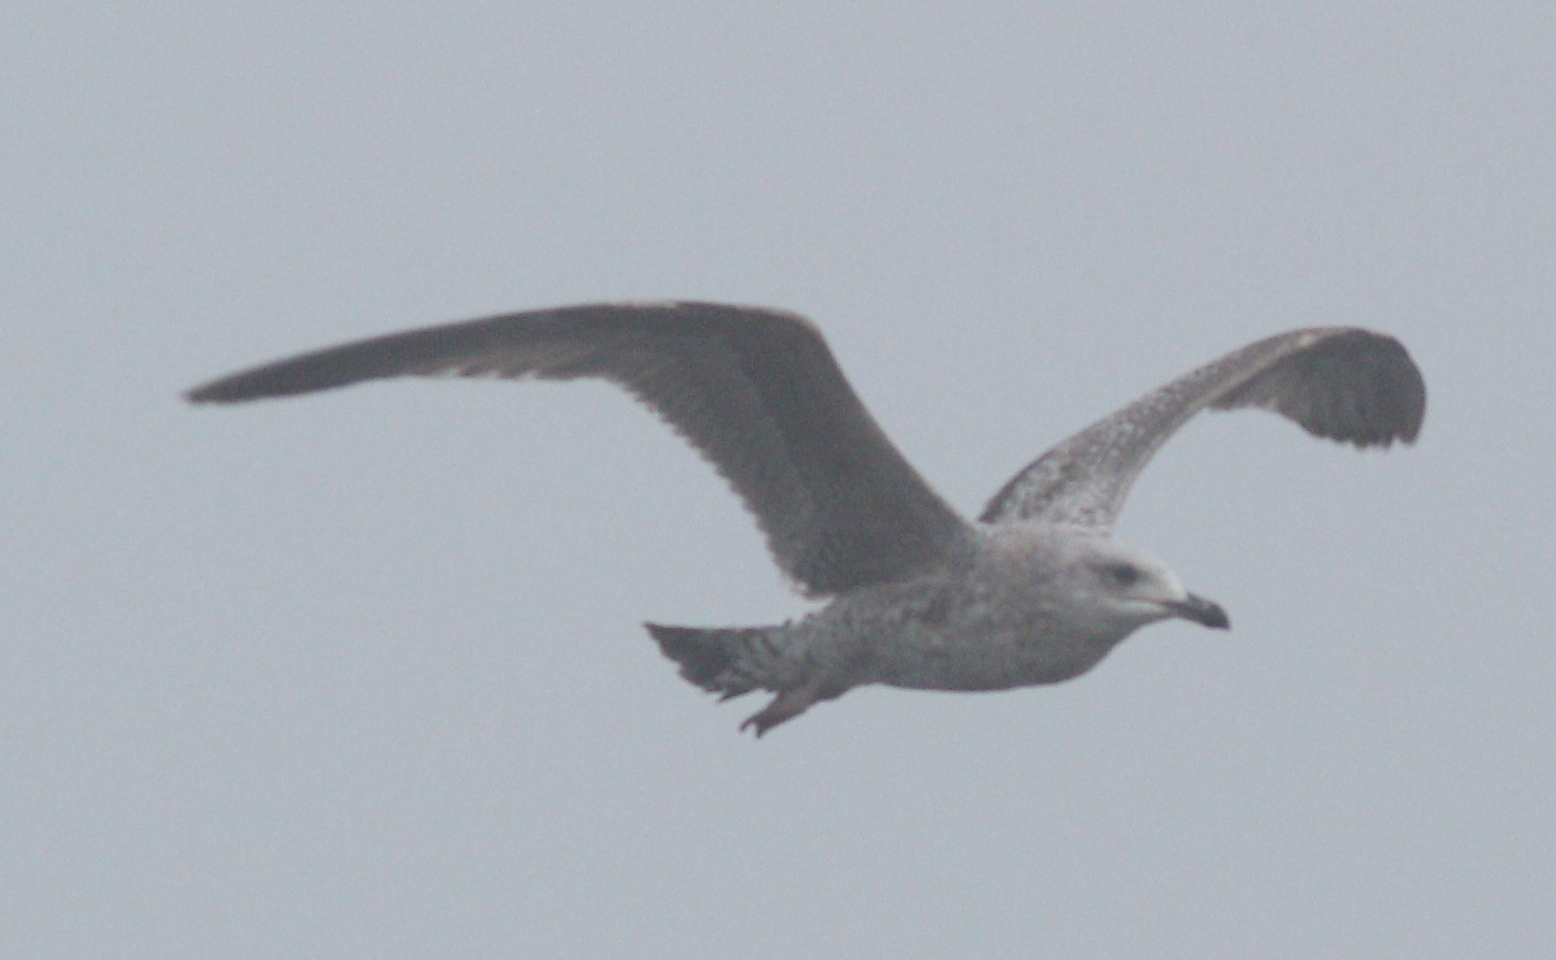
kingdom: Animalia
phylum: Chordata
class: Aves
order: Charadriiformes
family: Laridae
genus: Larus
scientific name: Larus argentatus
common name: Herring gull
